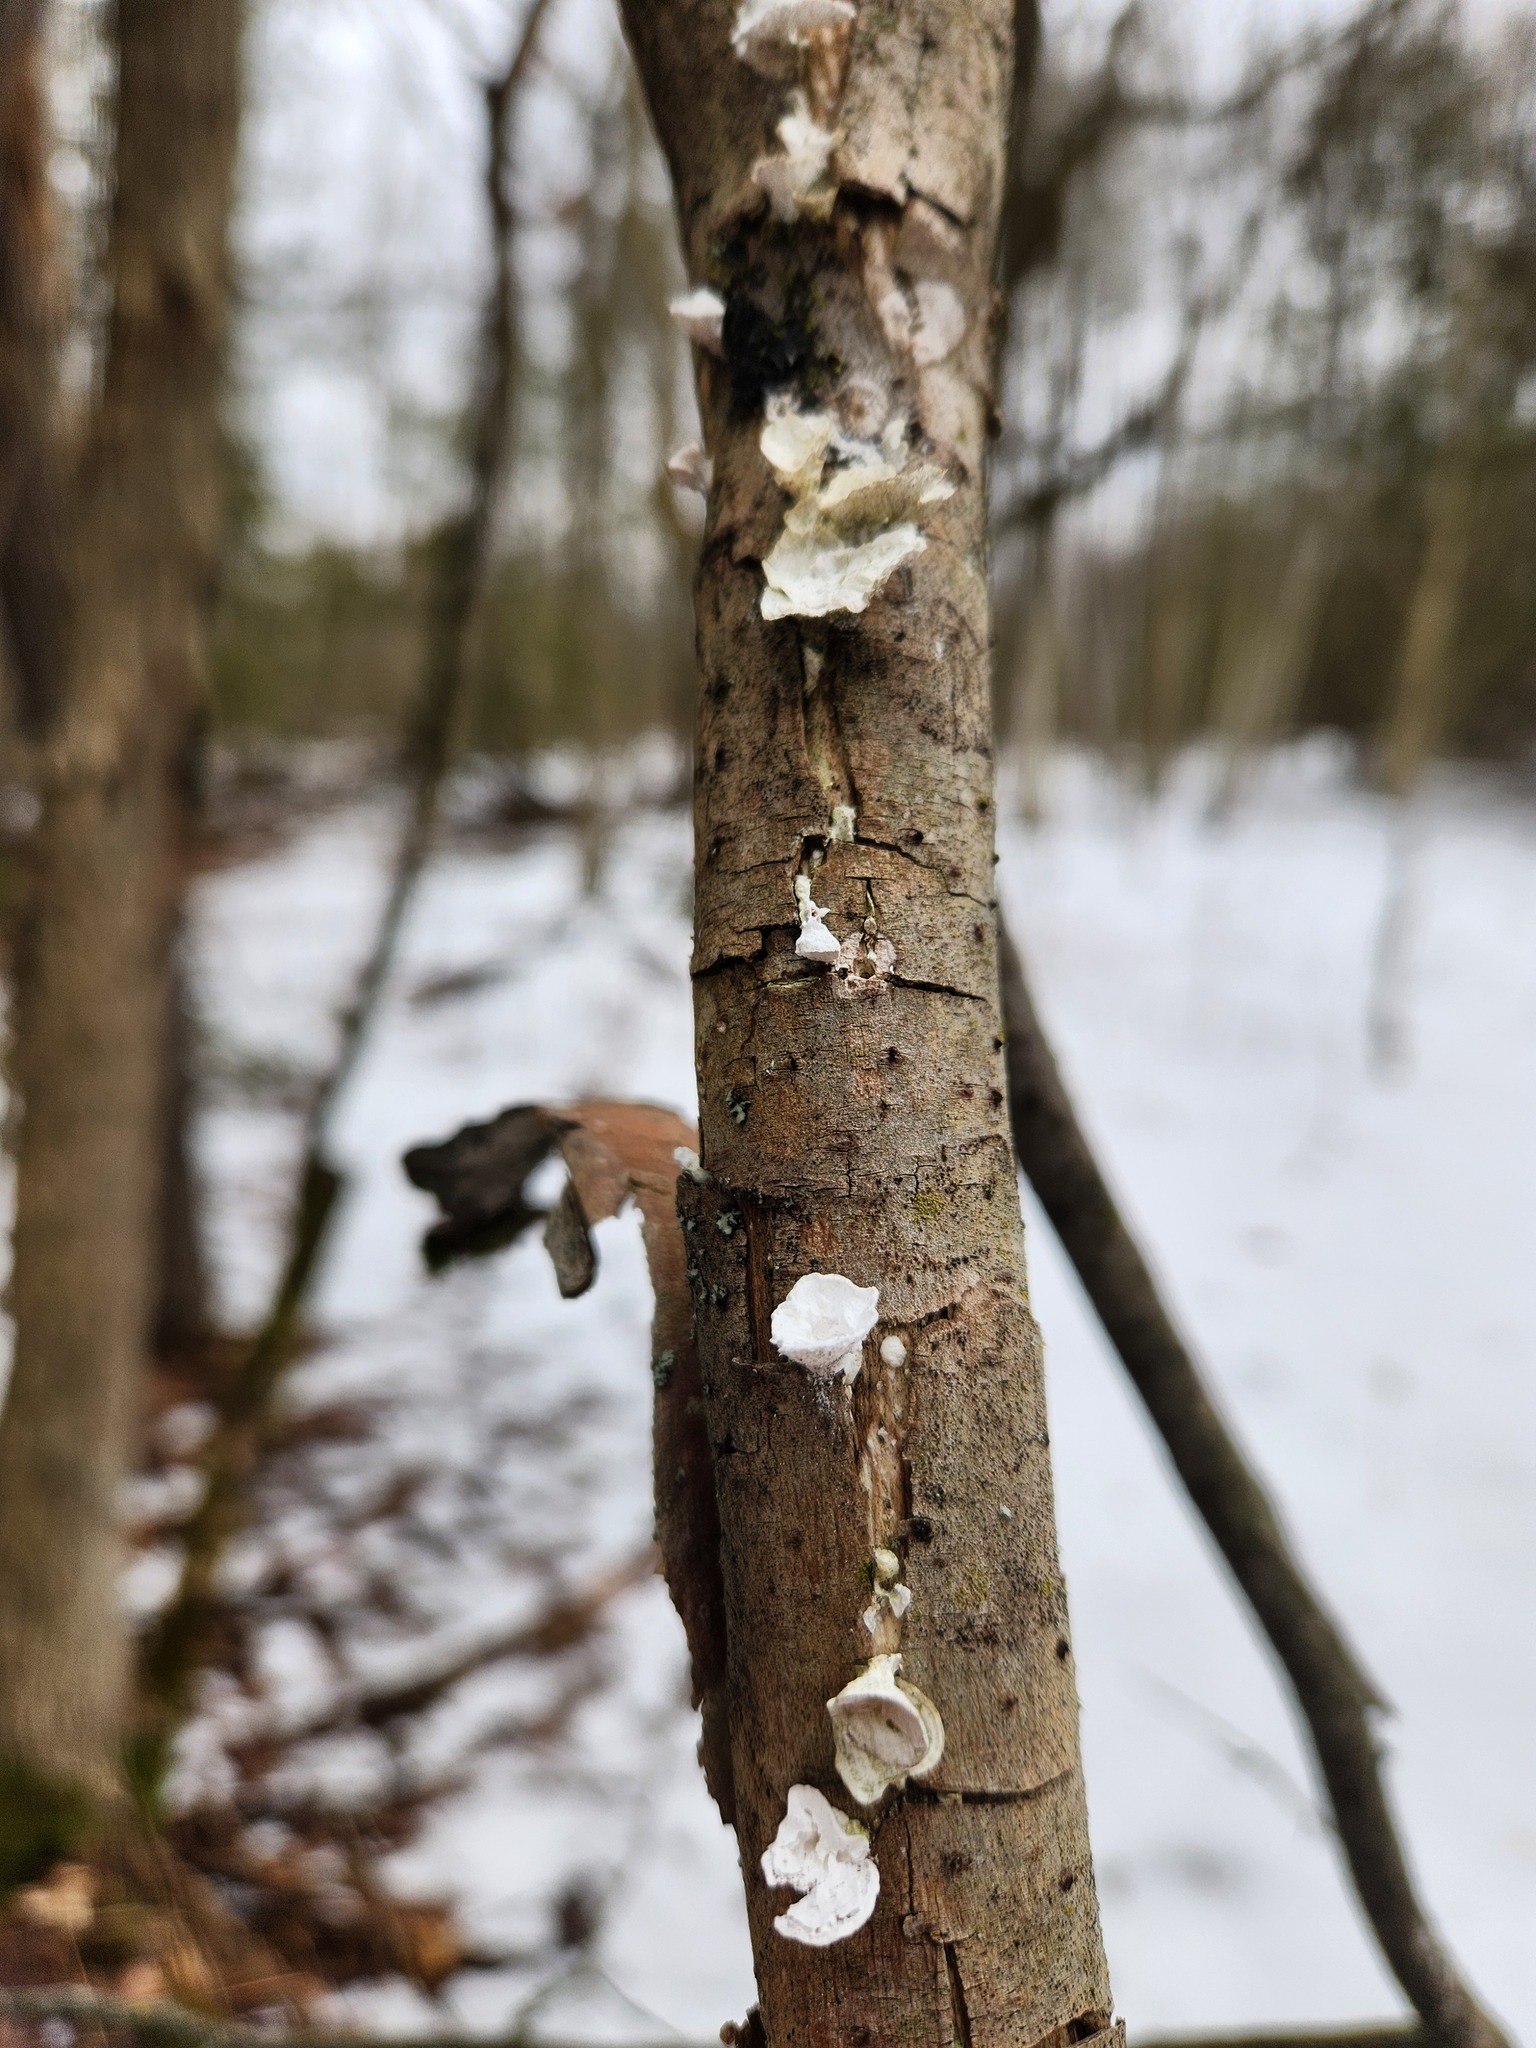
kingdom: Fungi
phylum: Basidiomycota
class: Agaricomycetes
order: Polyporales
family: Polyporaceae
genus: Poronidulus
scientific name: Poronidulus conchifer
